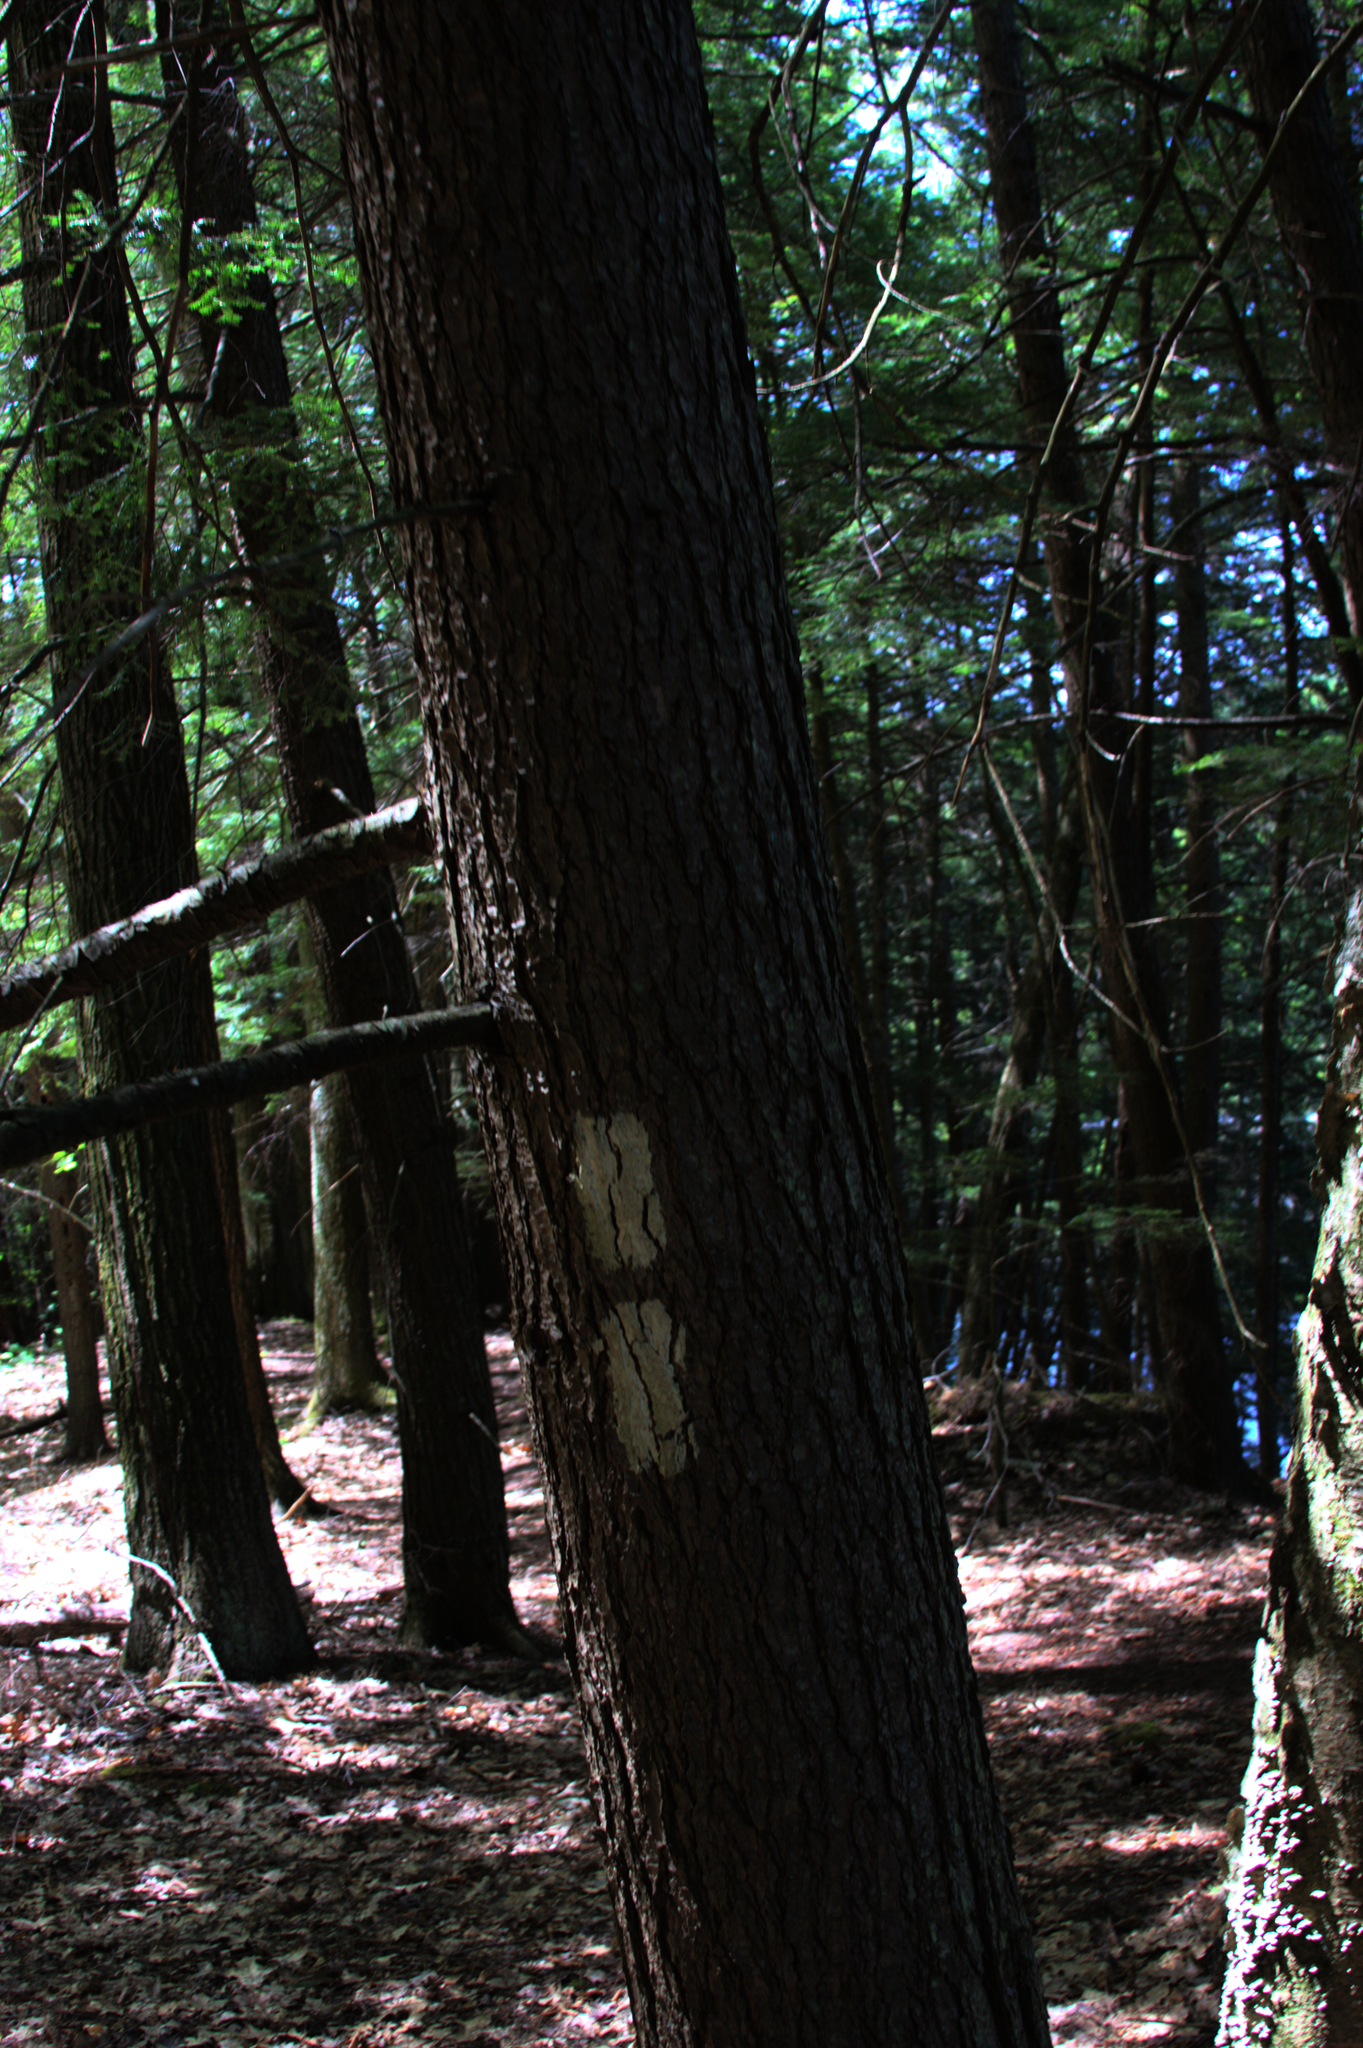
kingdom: Plantae
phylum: Tracheophyta
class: Pinopsida
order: Pinales
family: Pinaceae
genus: Tsuga
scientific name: Tsuga canadensis
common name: Eastern hemlock
